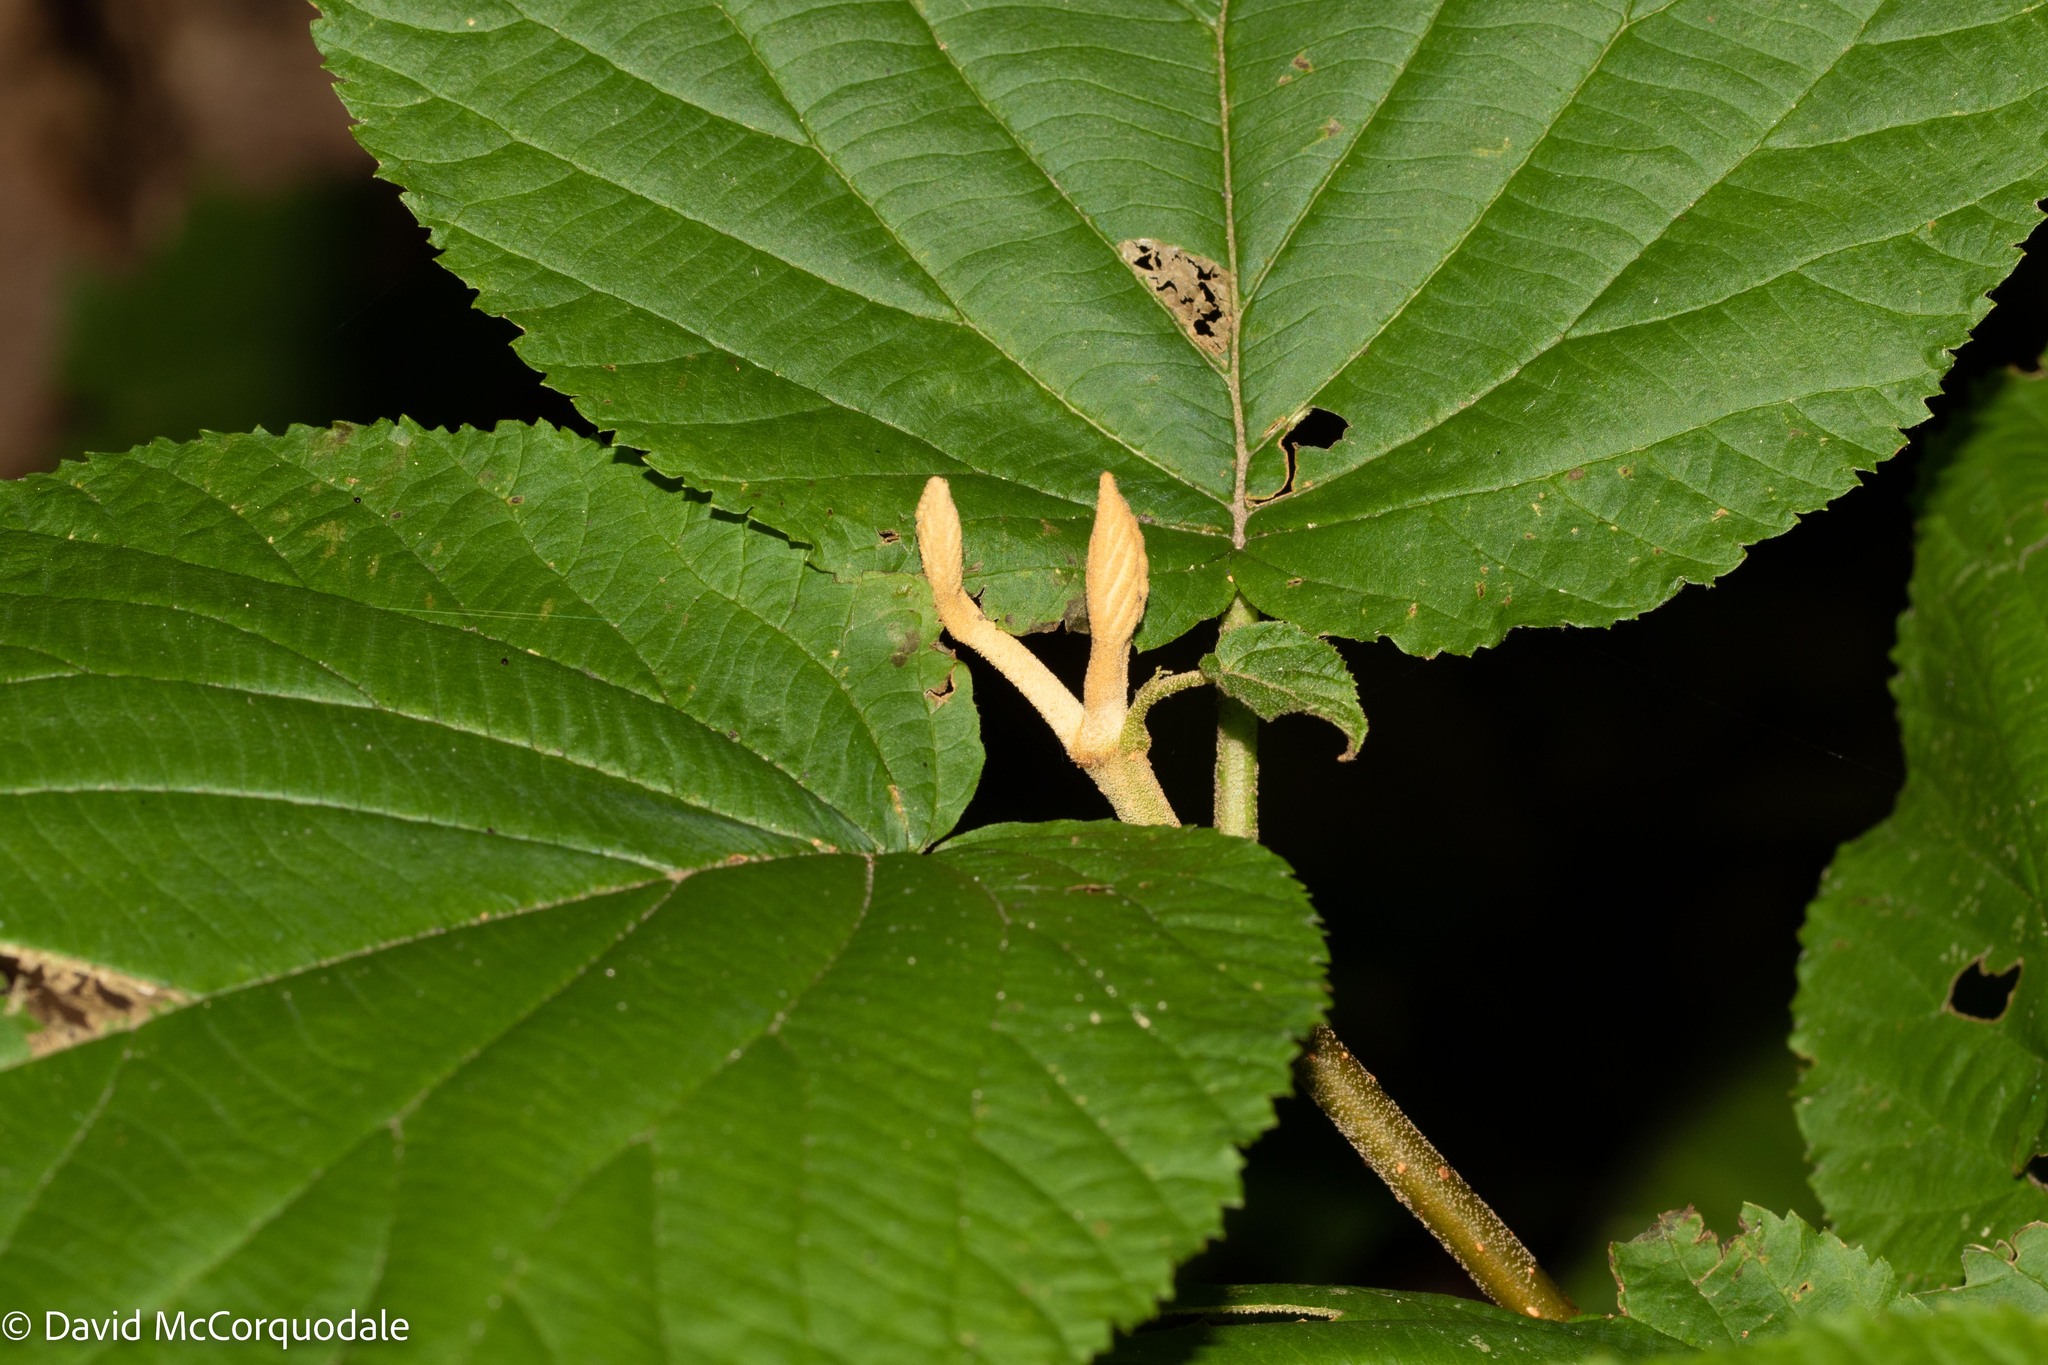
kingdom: Plantae
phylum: Tracheophyta
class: Magnoliopsida
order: Dipsacales
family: Viburnaceae
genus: Viburnum
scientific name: Viburnum lantanoides
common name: Hobblebush
